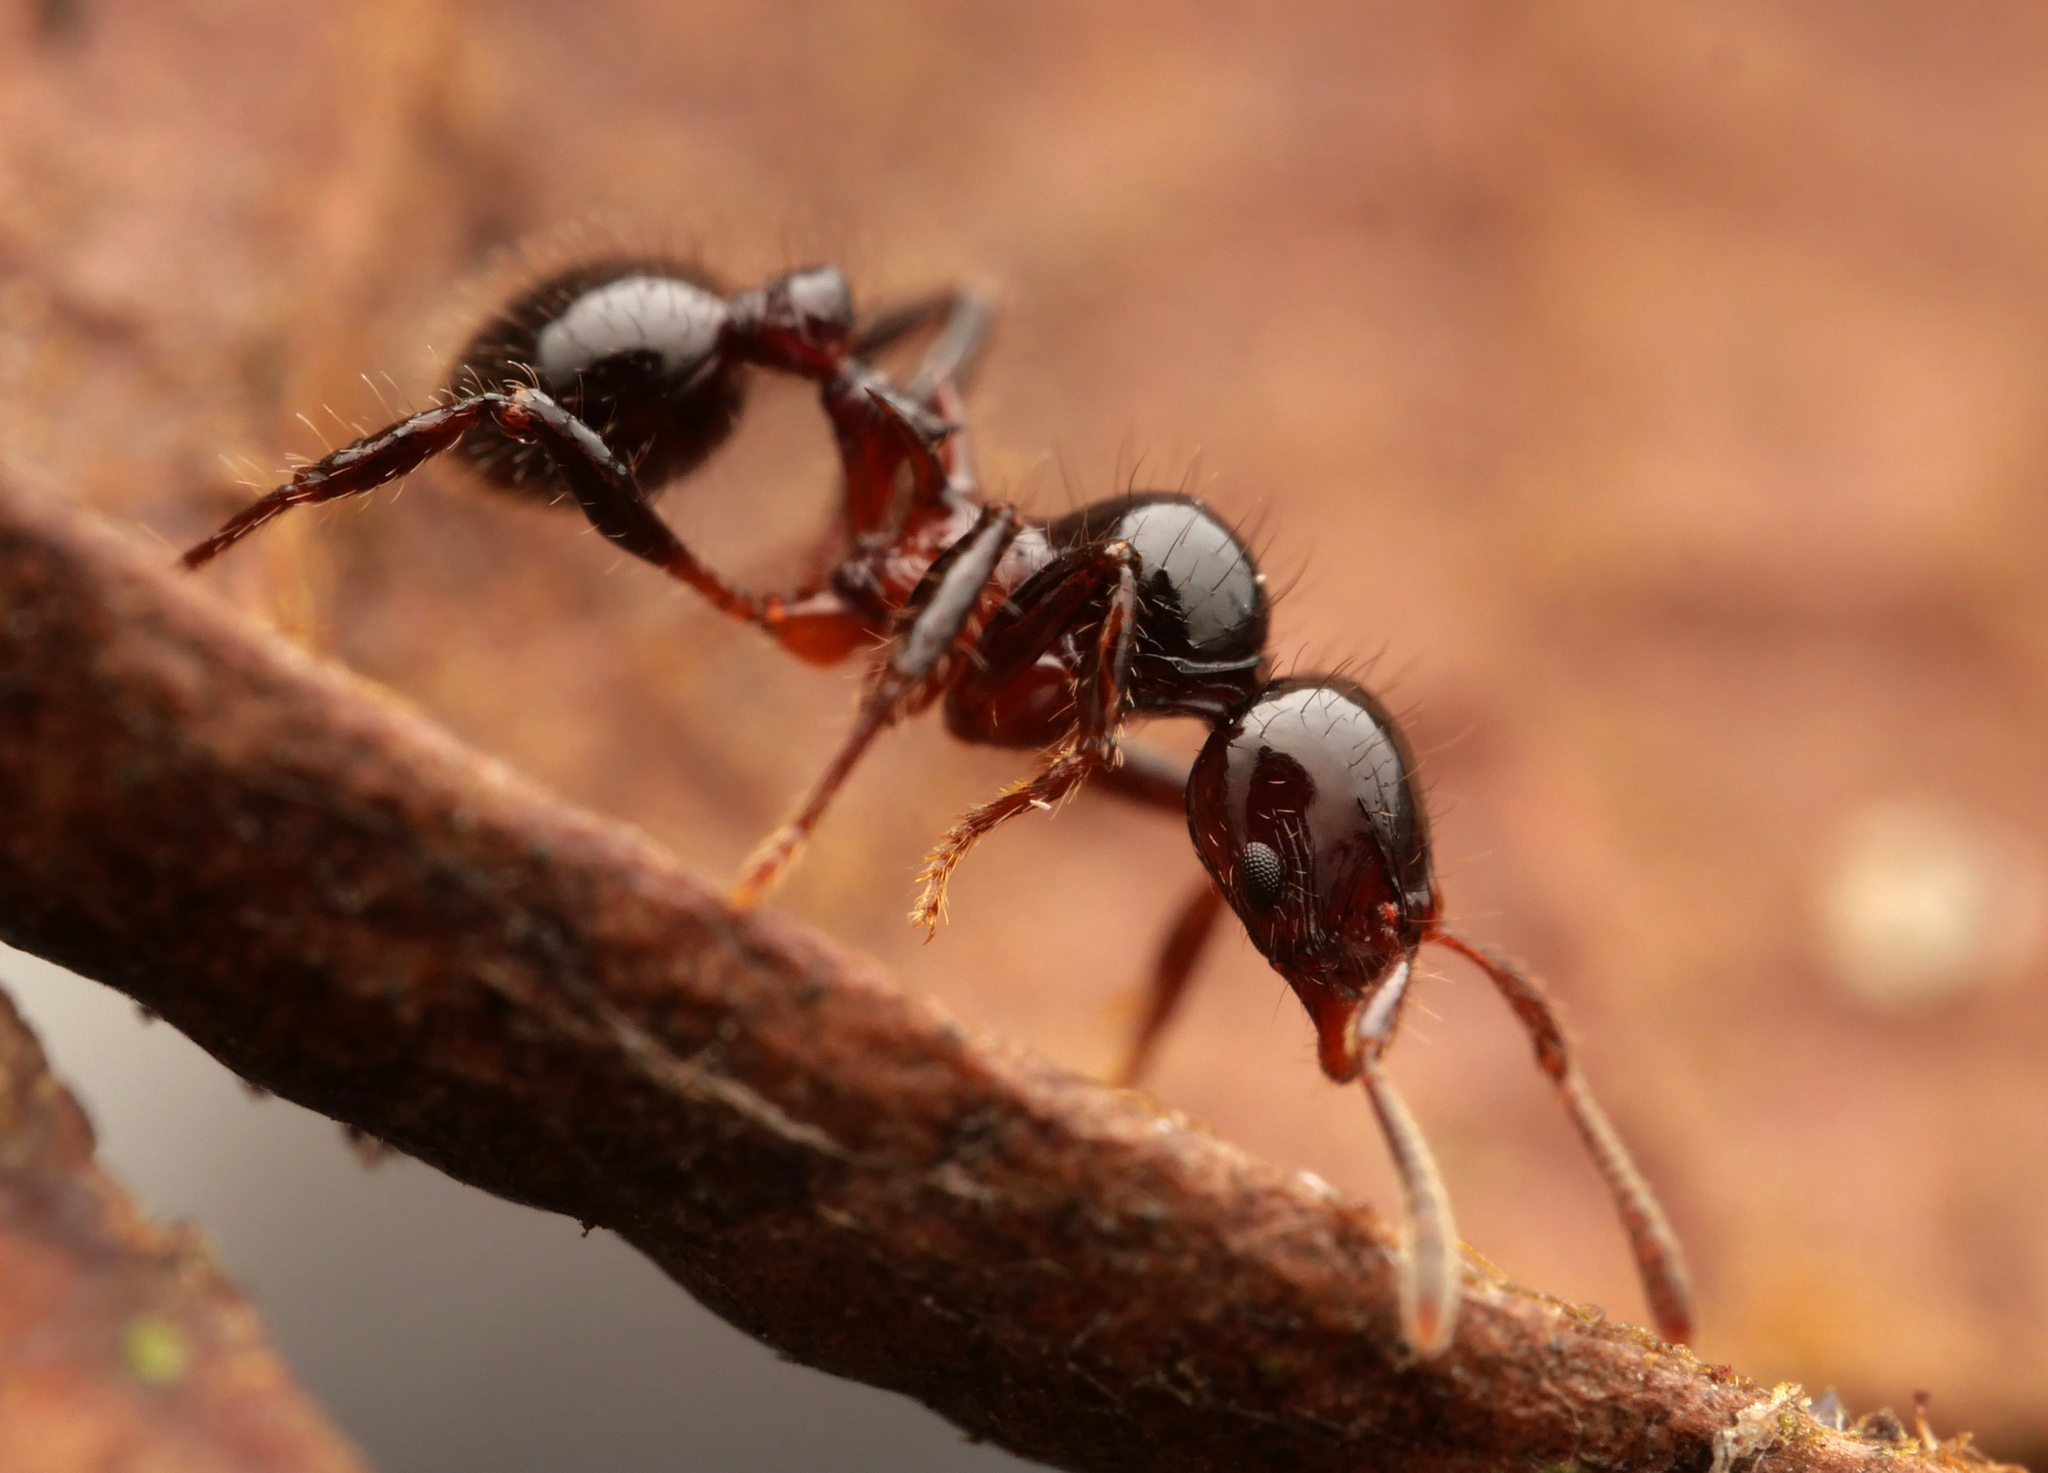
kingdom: Animalia
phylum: Arthropoda
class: Insecta
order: Hymenoptera
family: Formicidae
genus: Lordomyrma
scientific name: Lordomyrma furcifera
